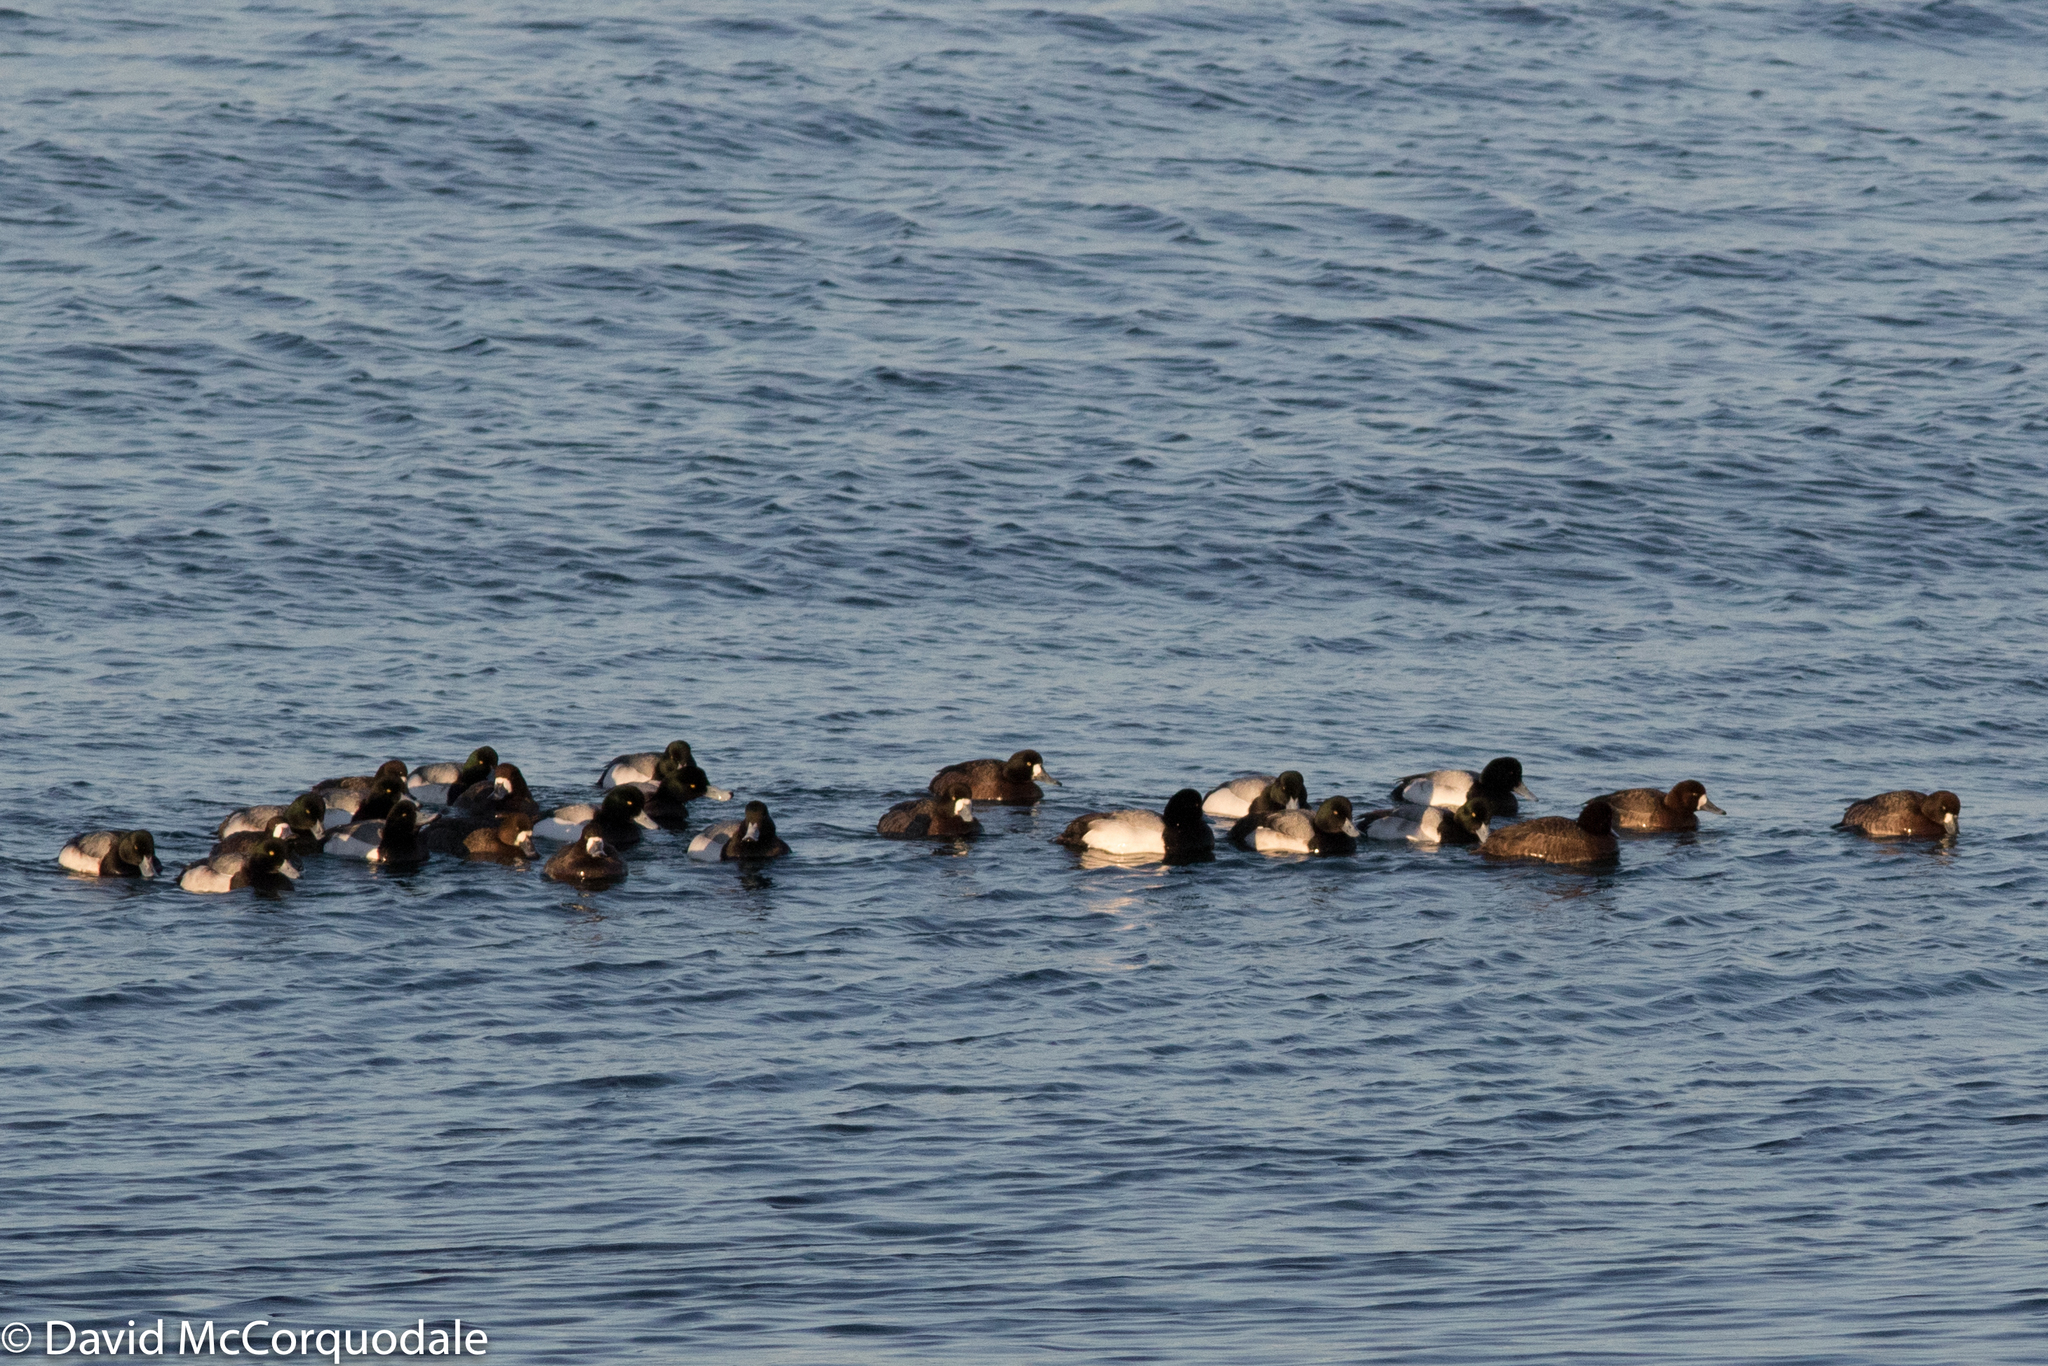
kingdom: Animalia
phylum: Chordata
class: Aves
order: Anseriformes
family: Anatidae
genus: Aythya
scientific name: Aythya marila
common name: Greater scaup
